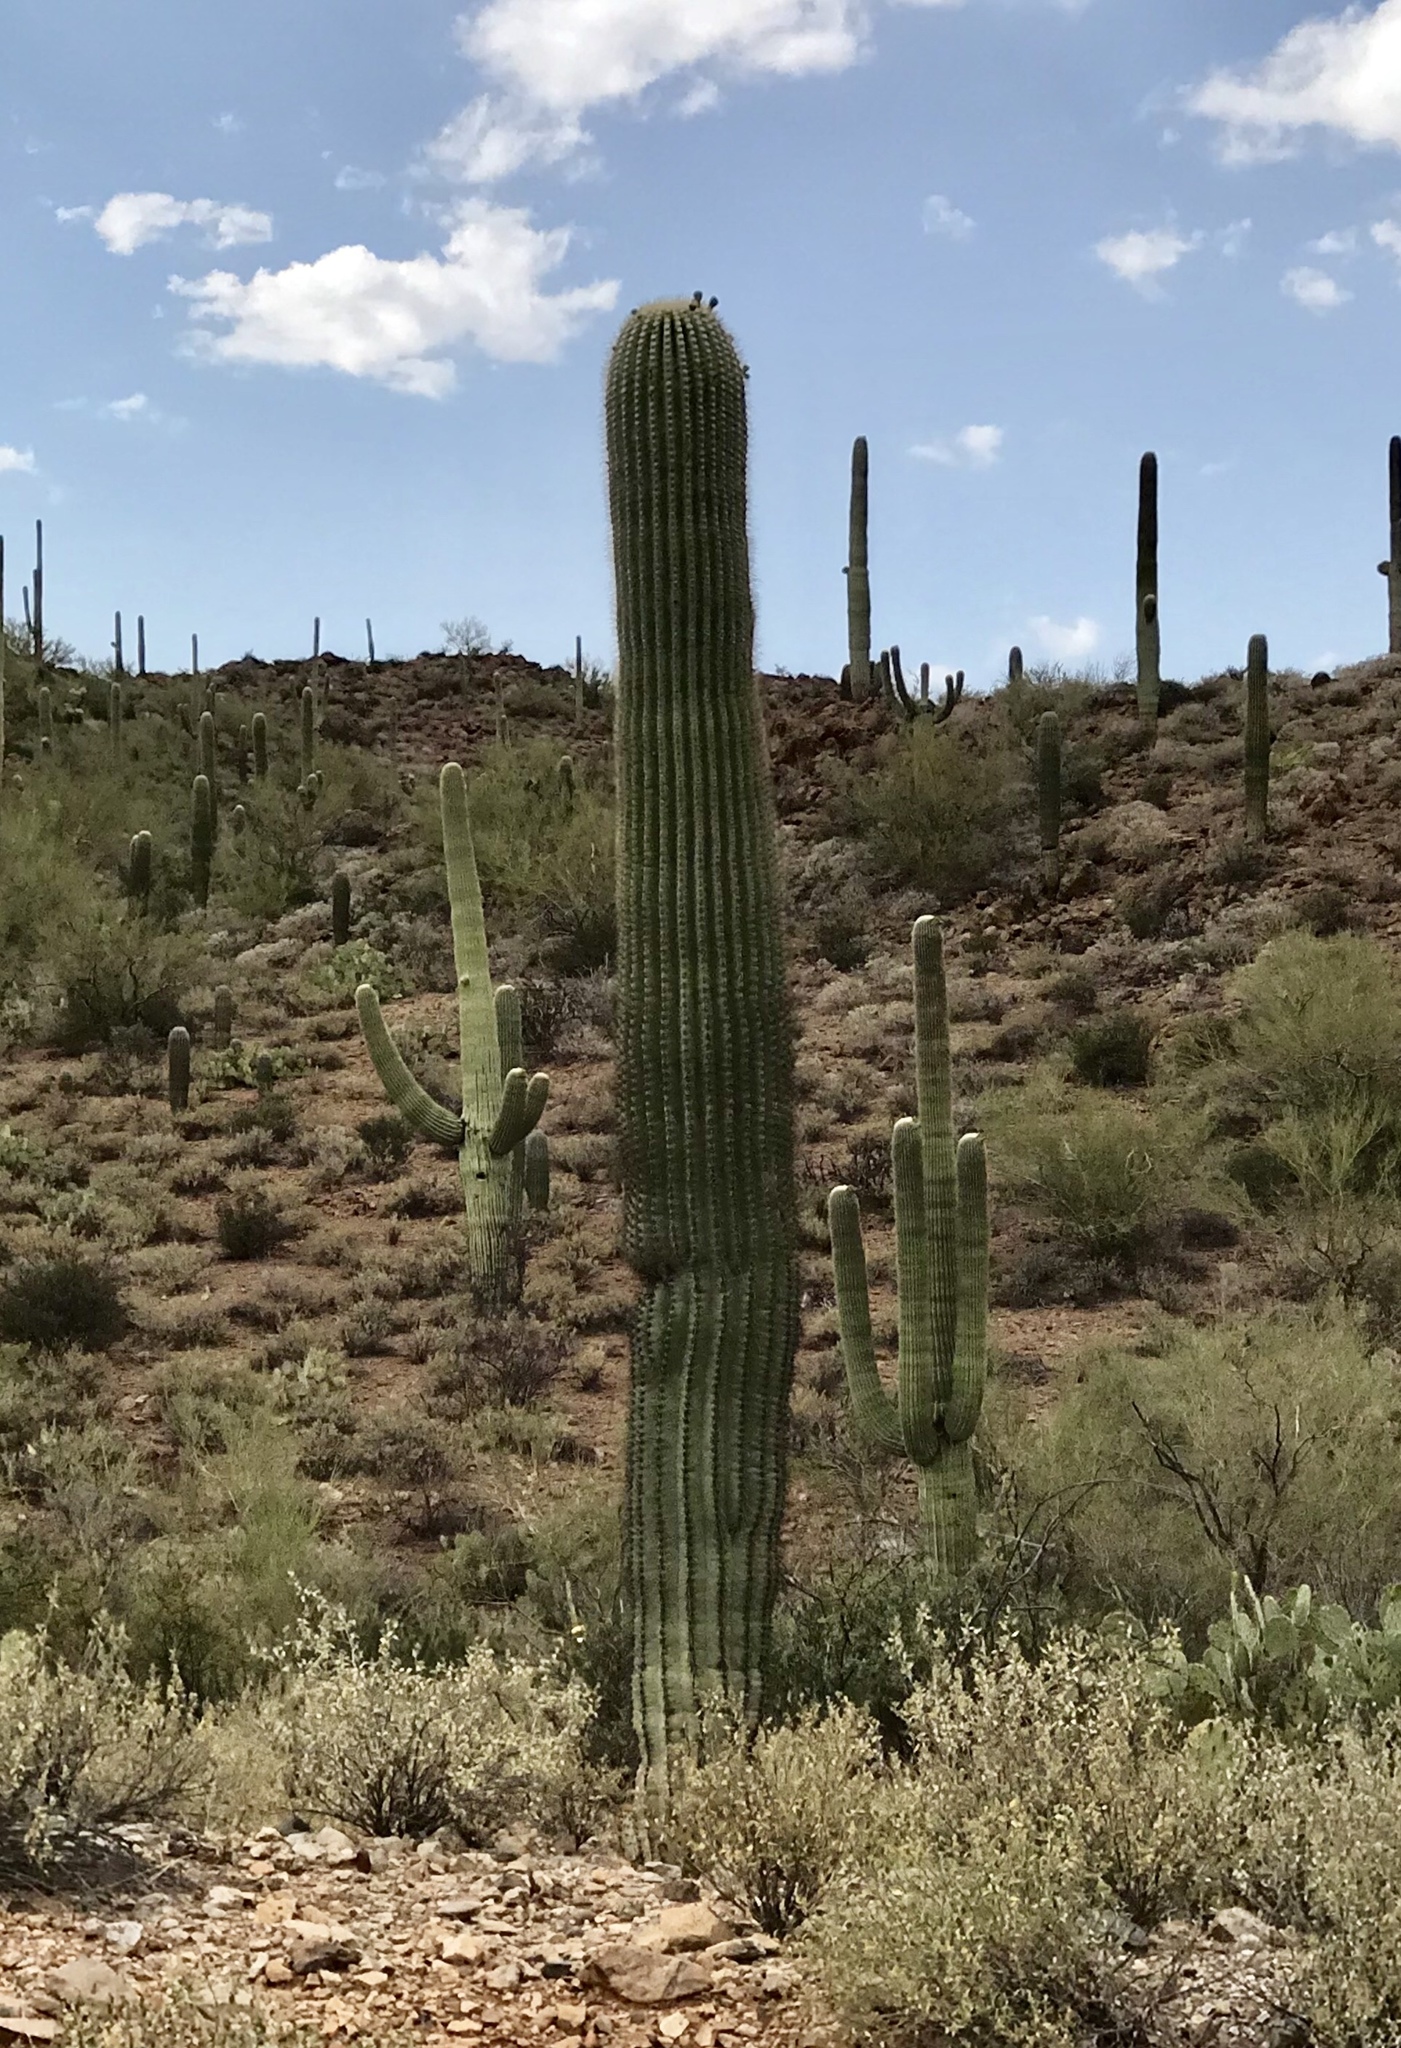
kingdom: Plantae
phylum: Tracheophyta
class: Magnoliopsida
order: Caryophyllales
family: Cactaceae
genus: Carnegiea
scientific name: Carnegiea gigantea
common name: Saguaro
